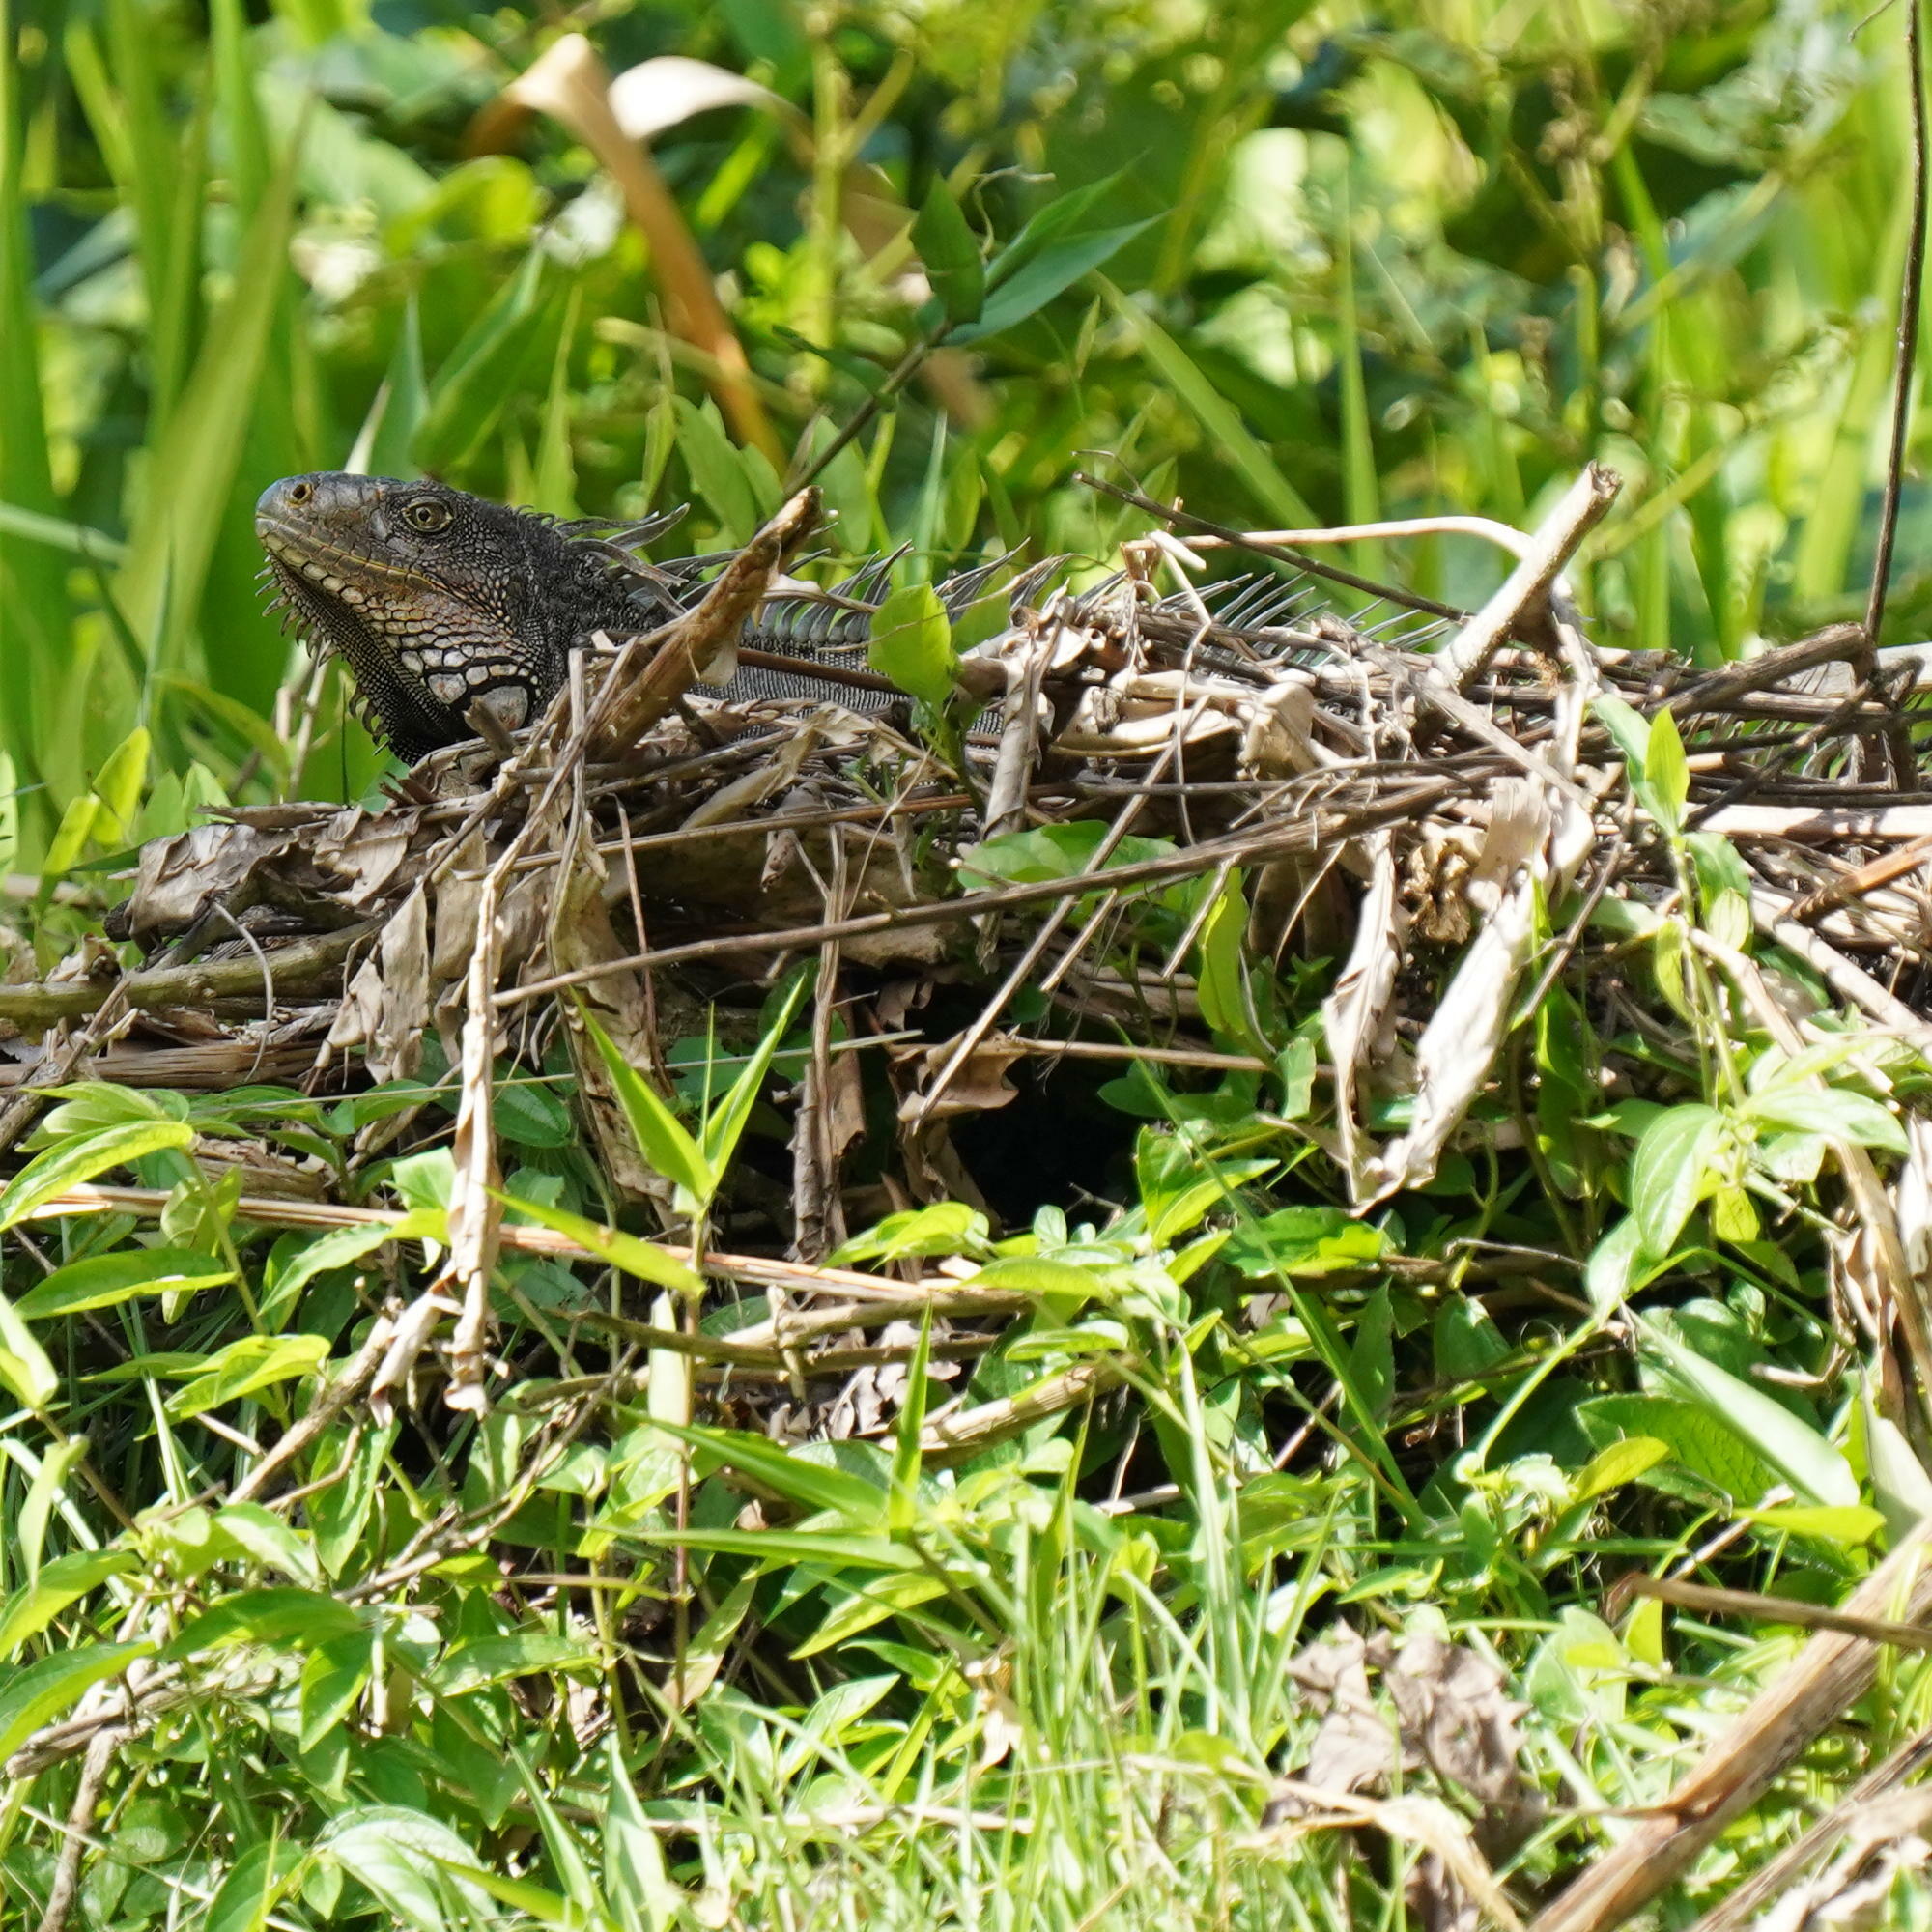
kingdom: Animalia
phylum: Chordata
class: Squamata
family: Iguanidae
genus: Iguana
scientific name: Iguana iguana
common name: Green iguana
